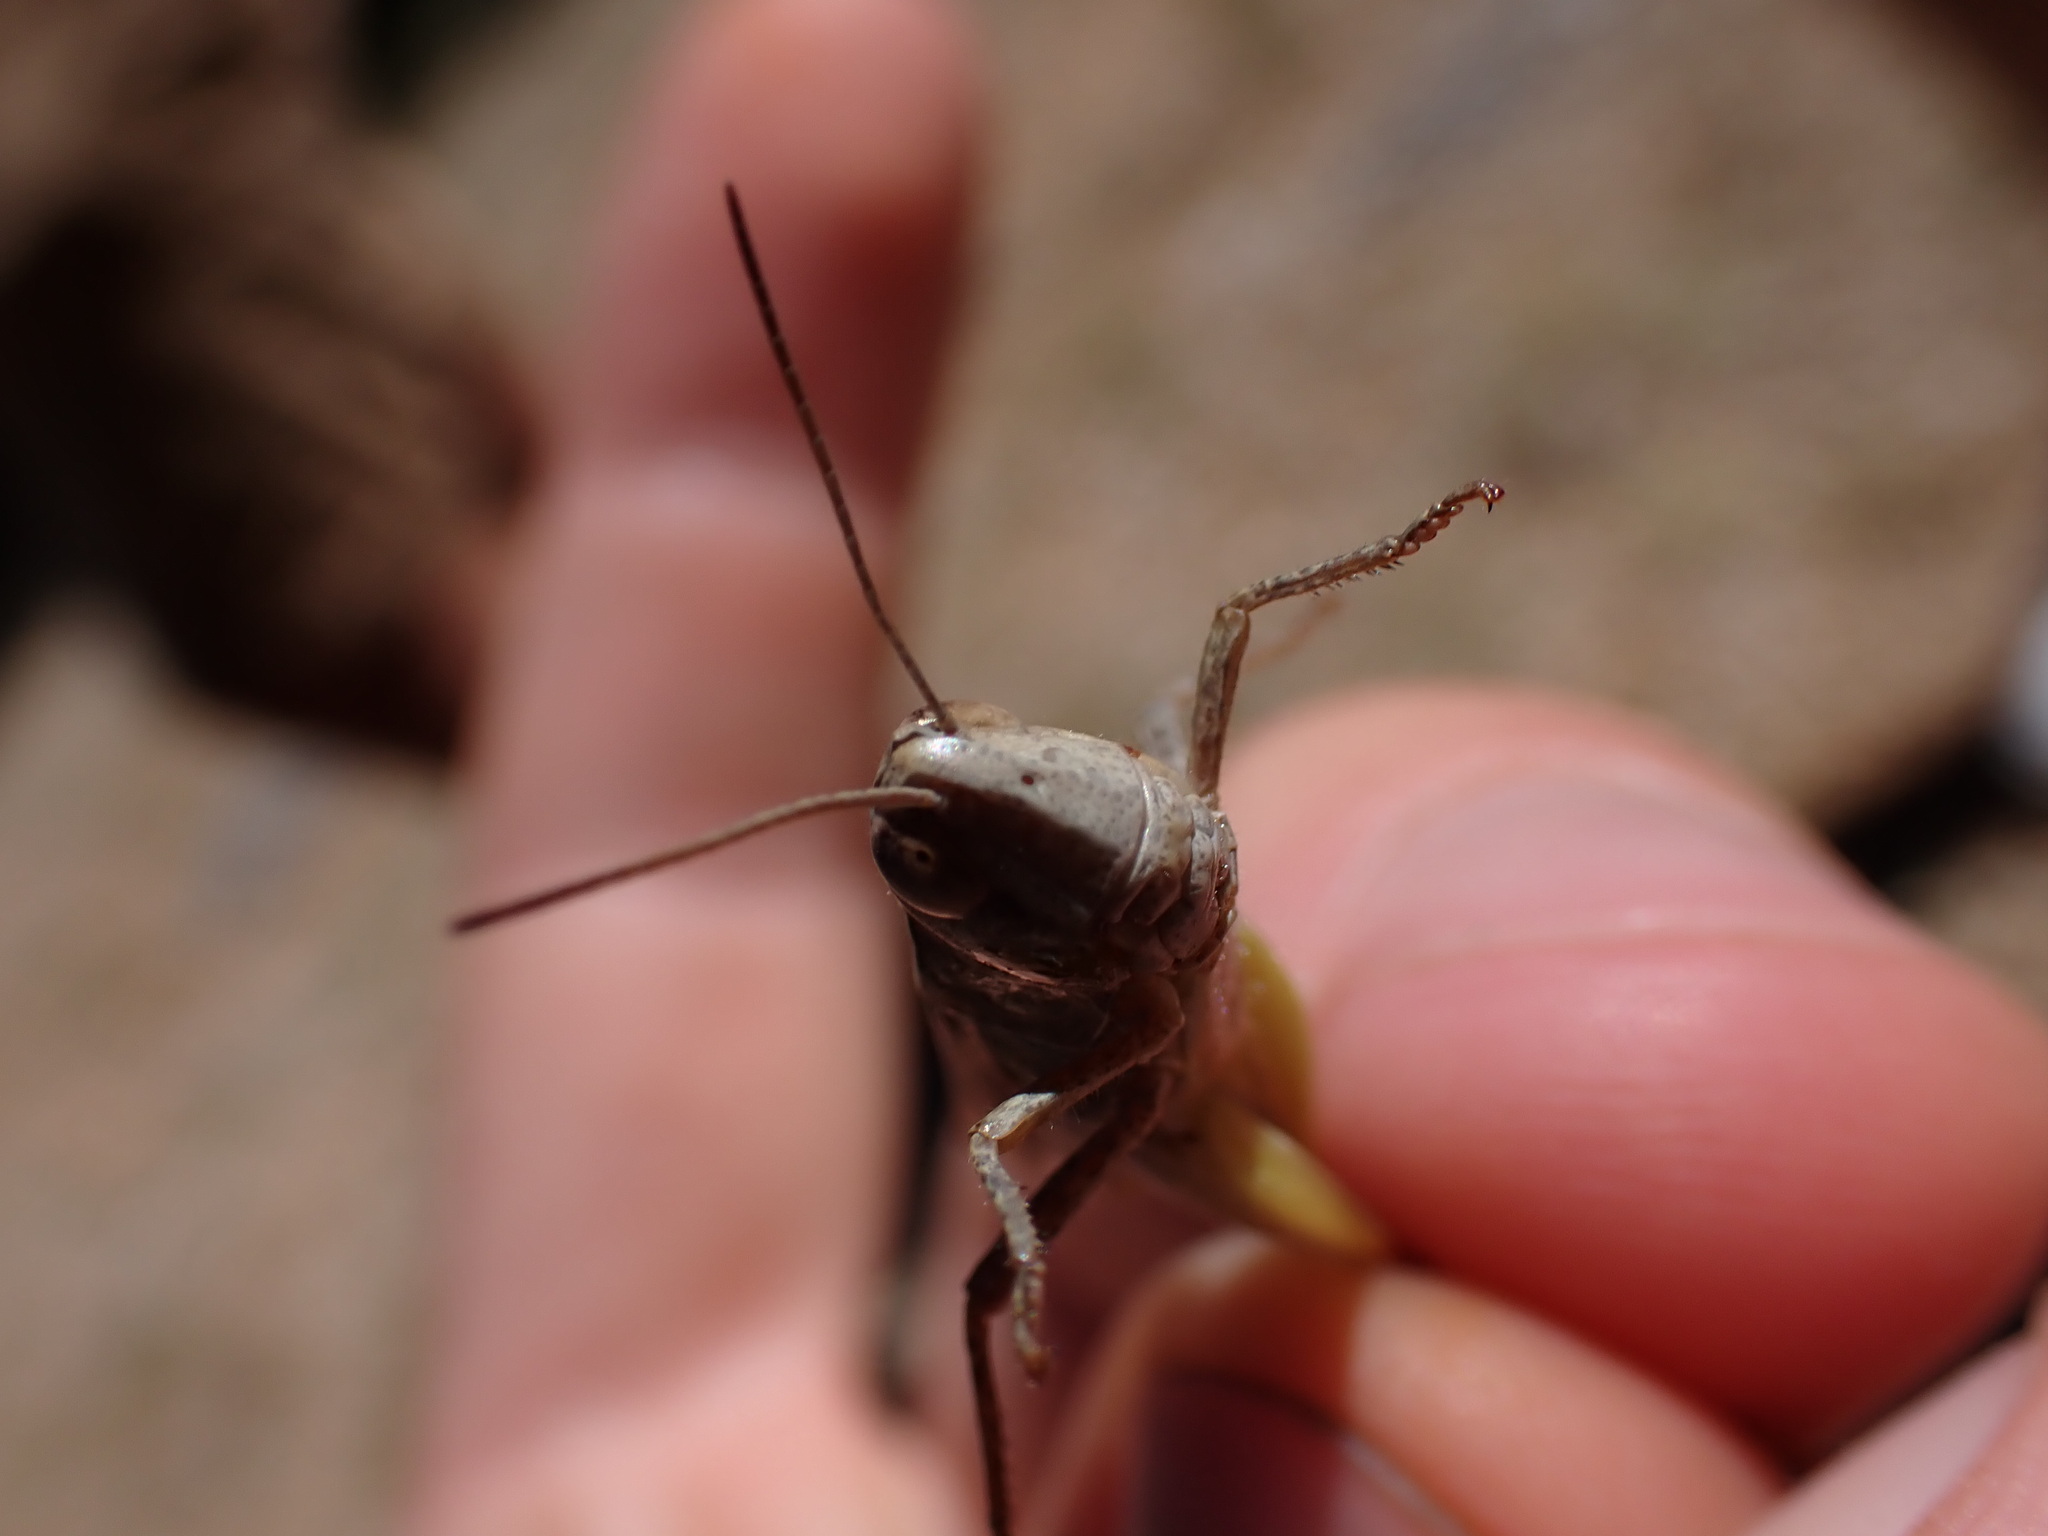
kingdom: Animalia
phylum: Arthropoda
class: Insecta
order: Orthoptera
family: Acrididae
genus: Chorthippus
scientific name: Chorthippus vagans
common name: Heath grasshopper
